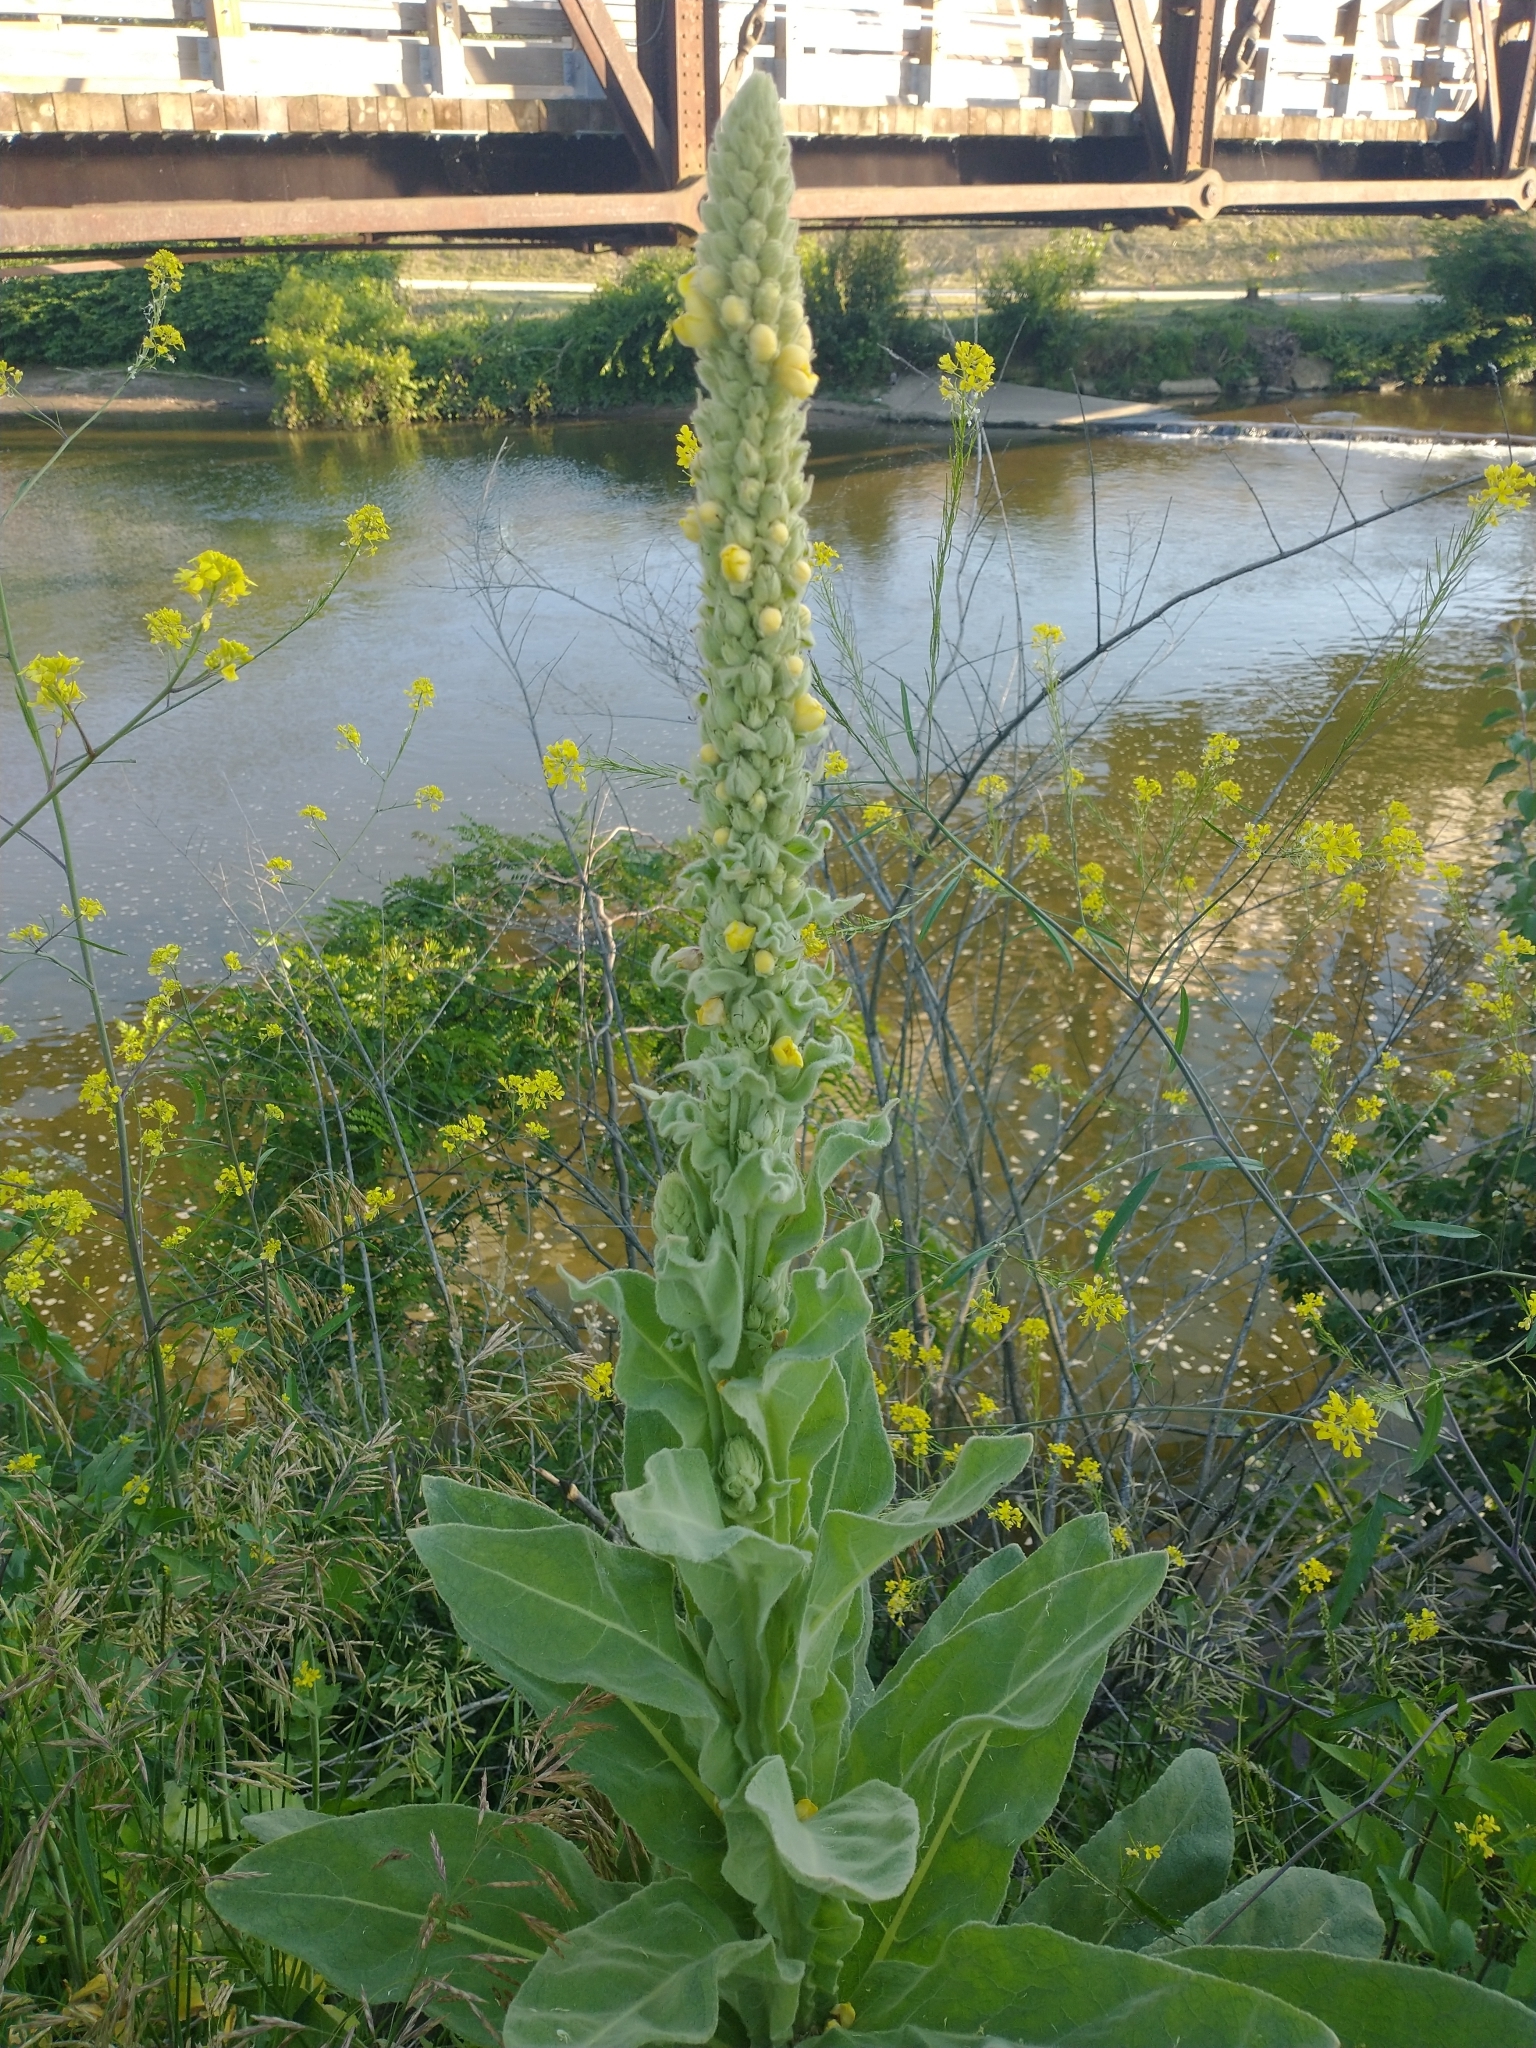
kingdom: Plantae
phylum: Tracheophyta
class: Magnoliopsida
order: Lamiales
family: Scrophulariaceae
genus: Verbascum
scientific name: Verbascum thapsus
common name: Common mullein
